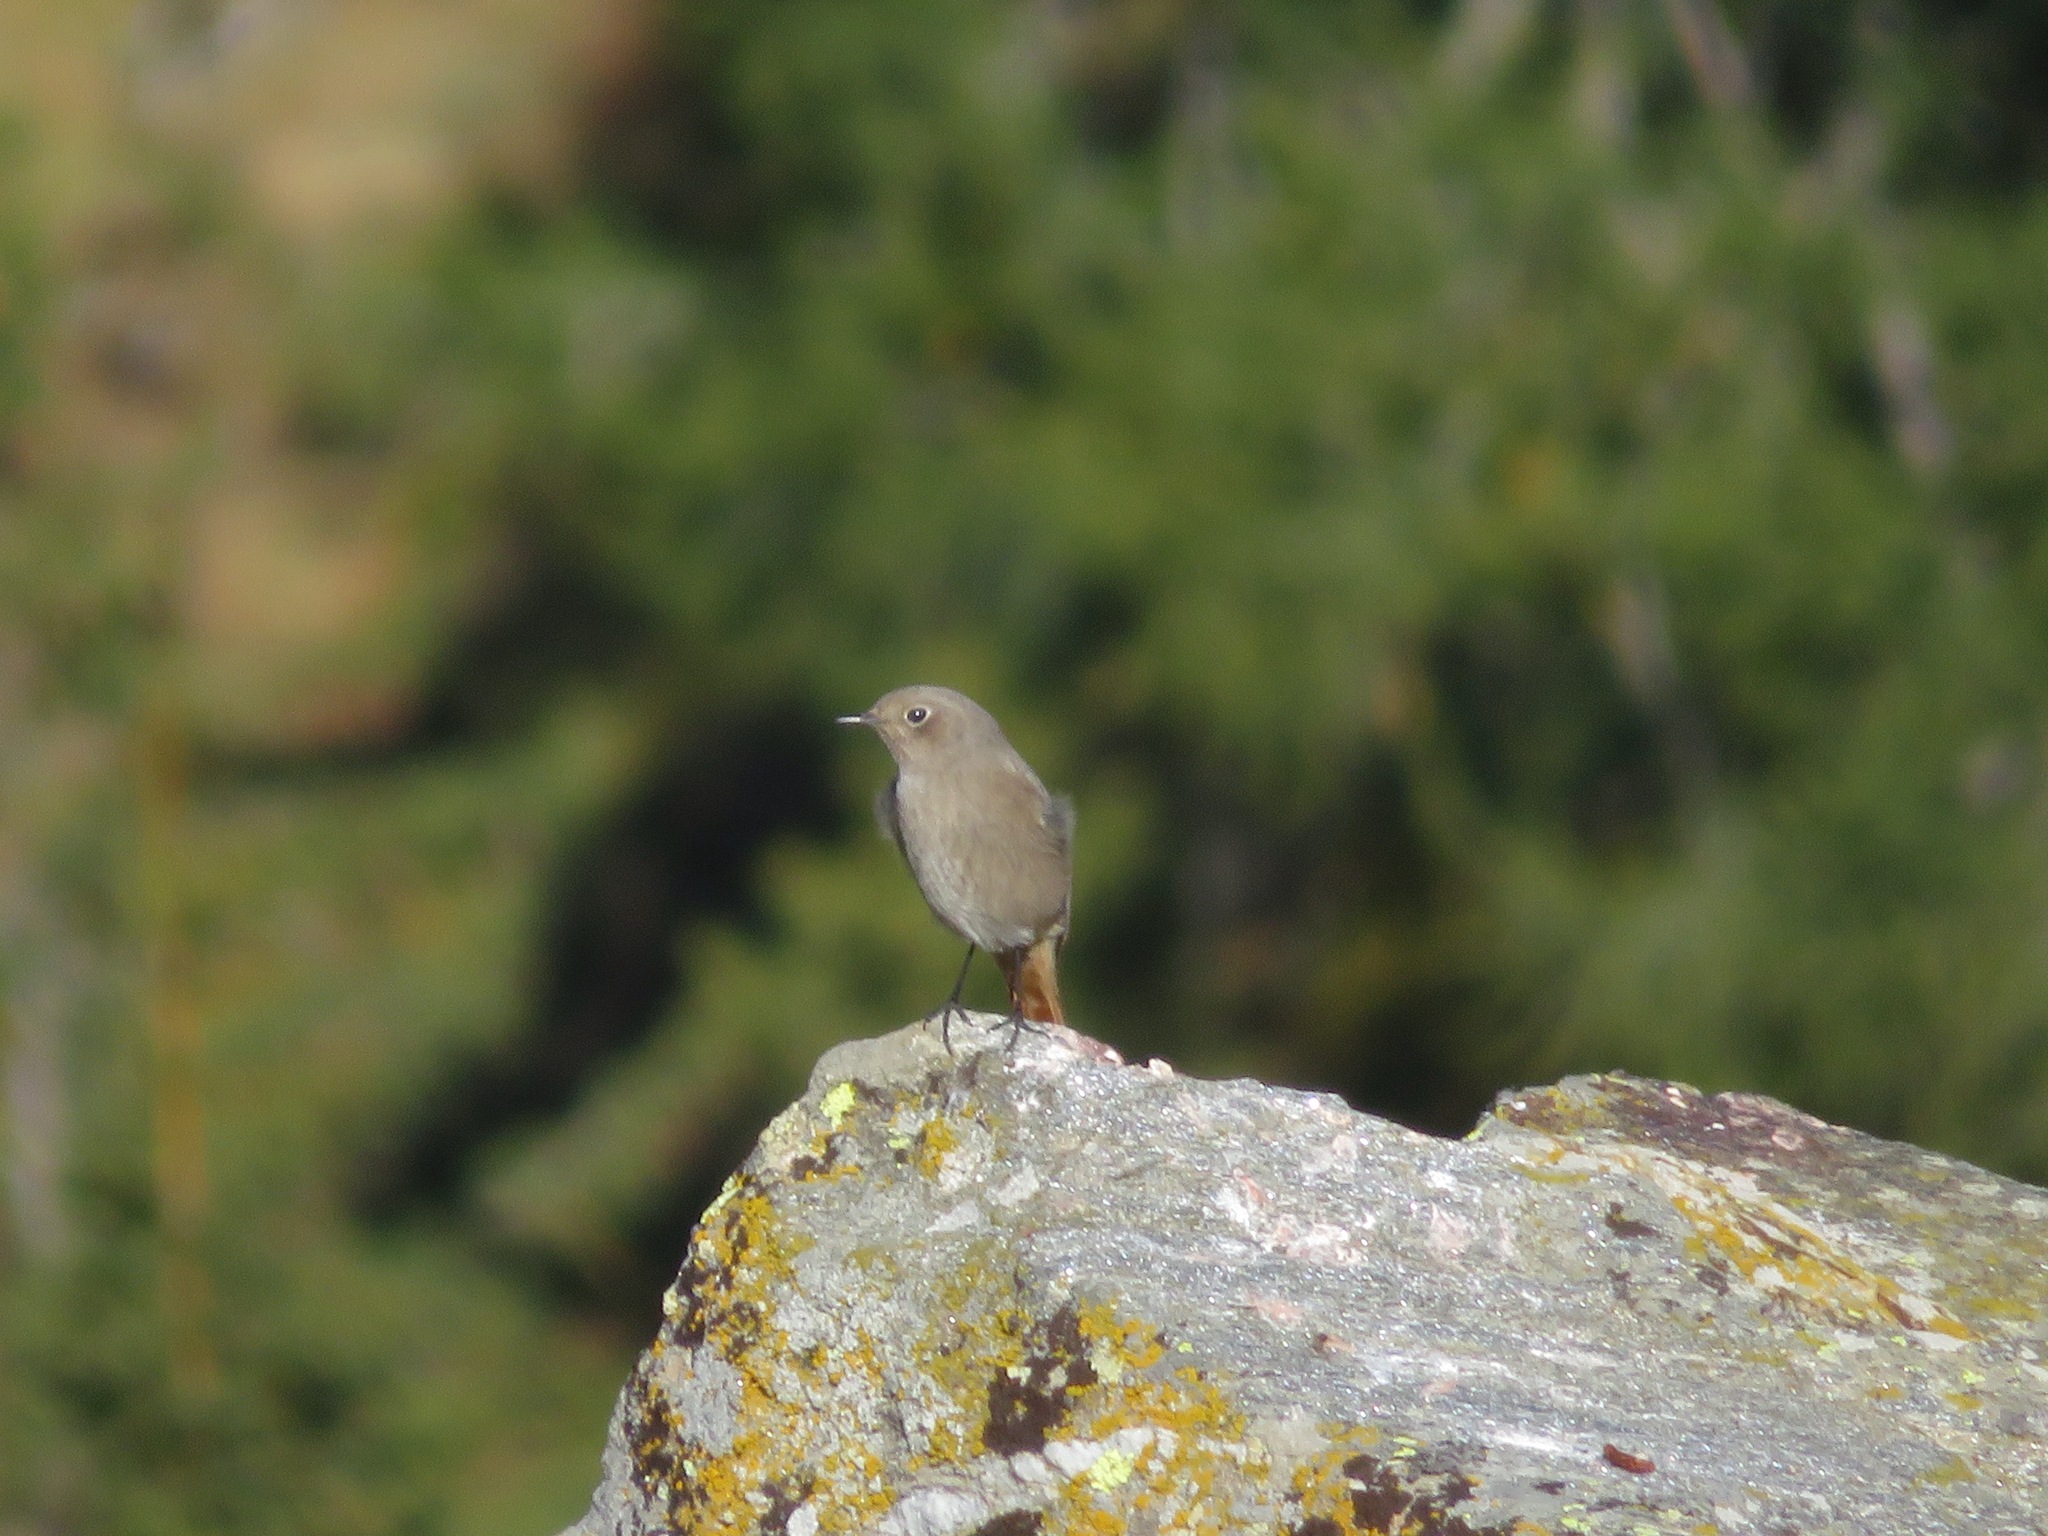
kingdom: Animalia
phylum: Chordata
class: Aves
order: Passeriformes
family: Muscicapidae
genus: Phoenicurus
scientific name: Phoenicurus ochruros
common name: Black redstart
